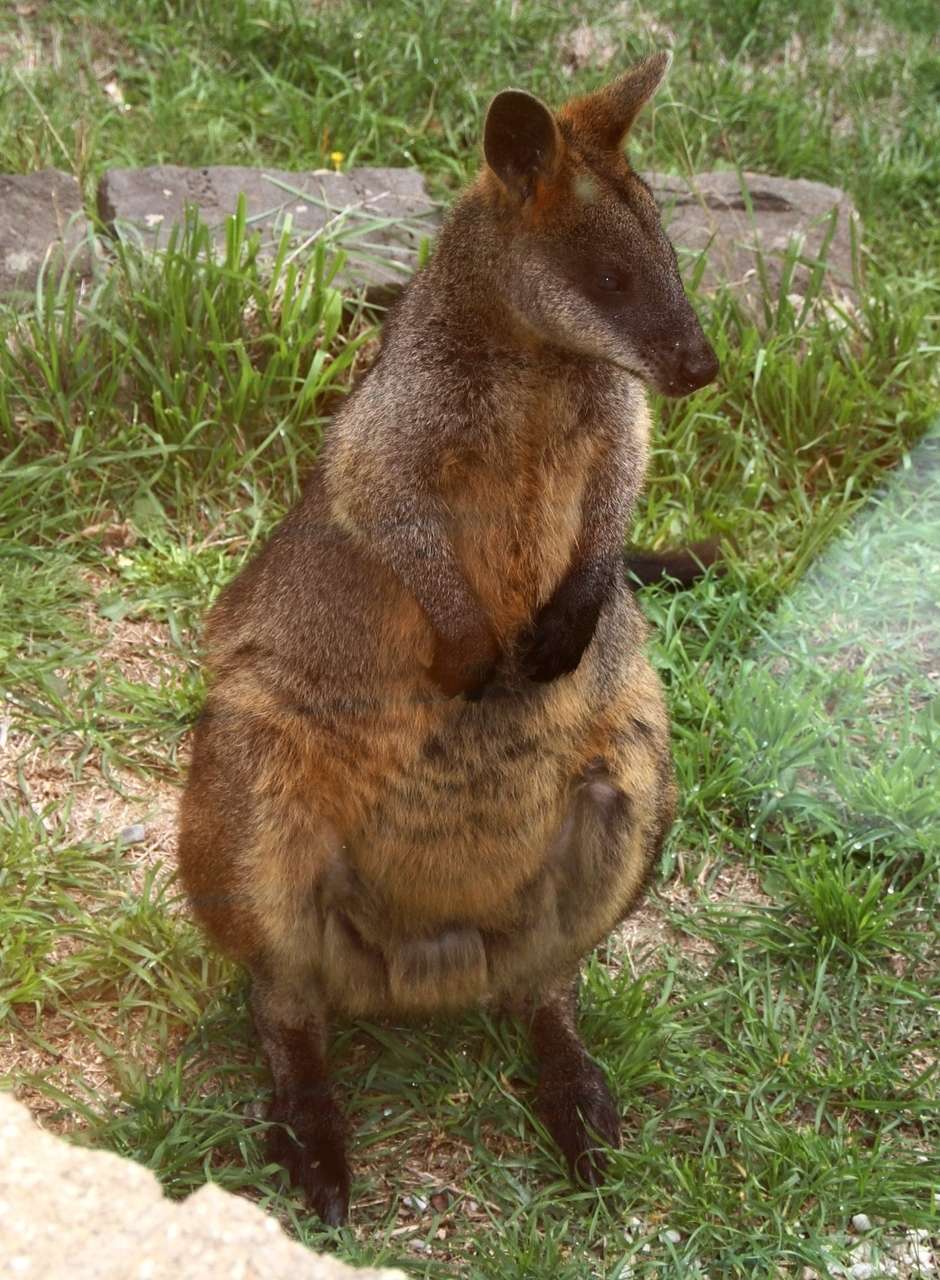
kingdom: Animalia
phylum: Chordata
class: Mammalia
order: Diprotodontia
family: Macropodidae
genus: Wallabia
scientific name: Wallabia bicolor
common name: Swamp wallaby
